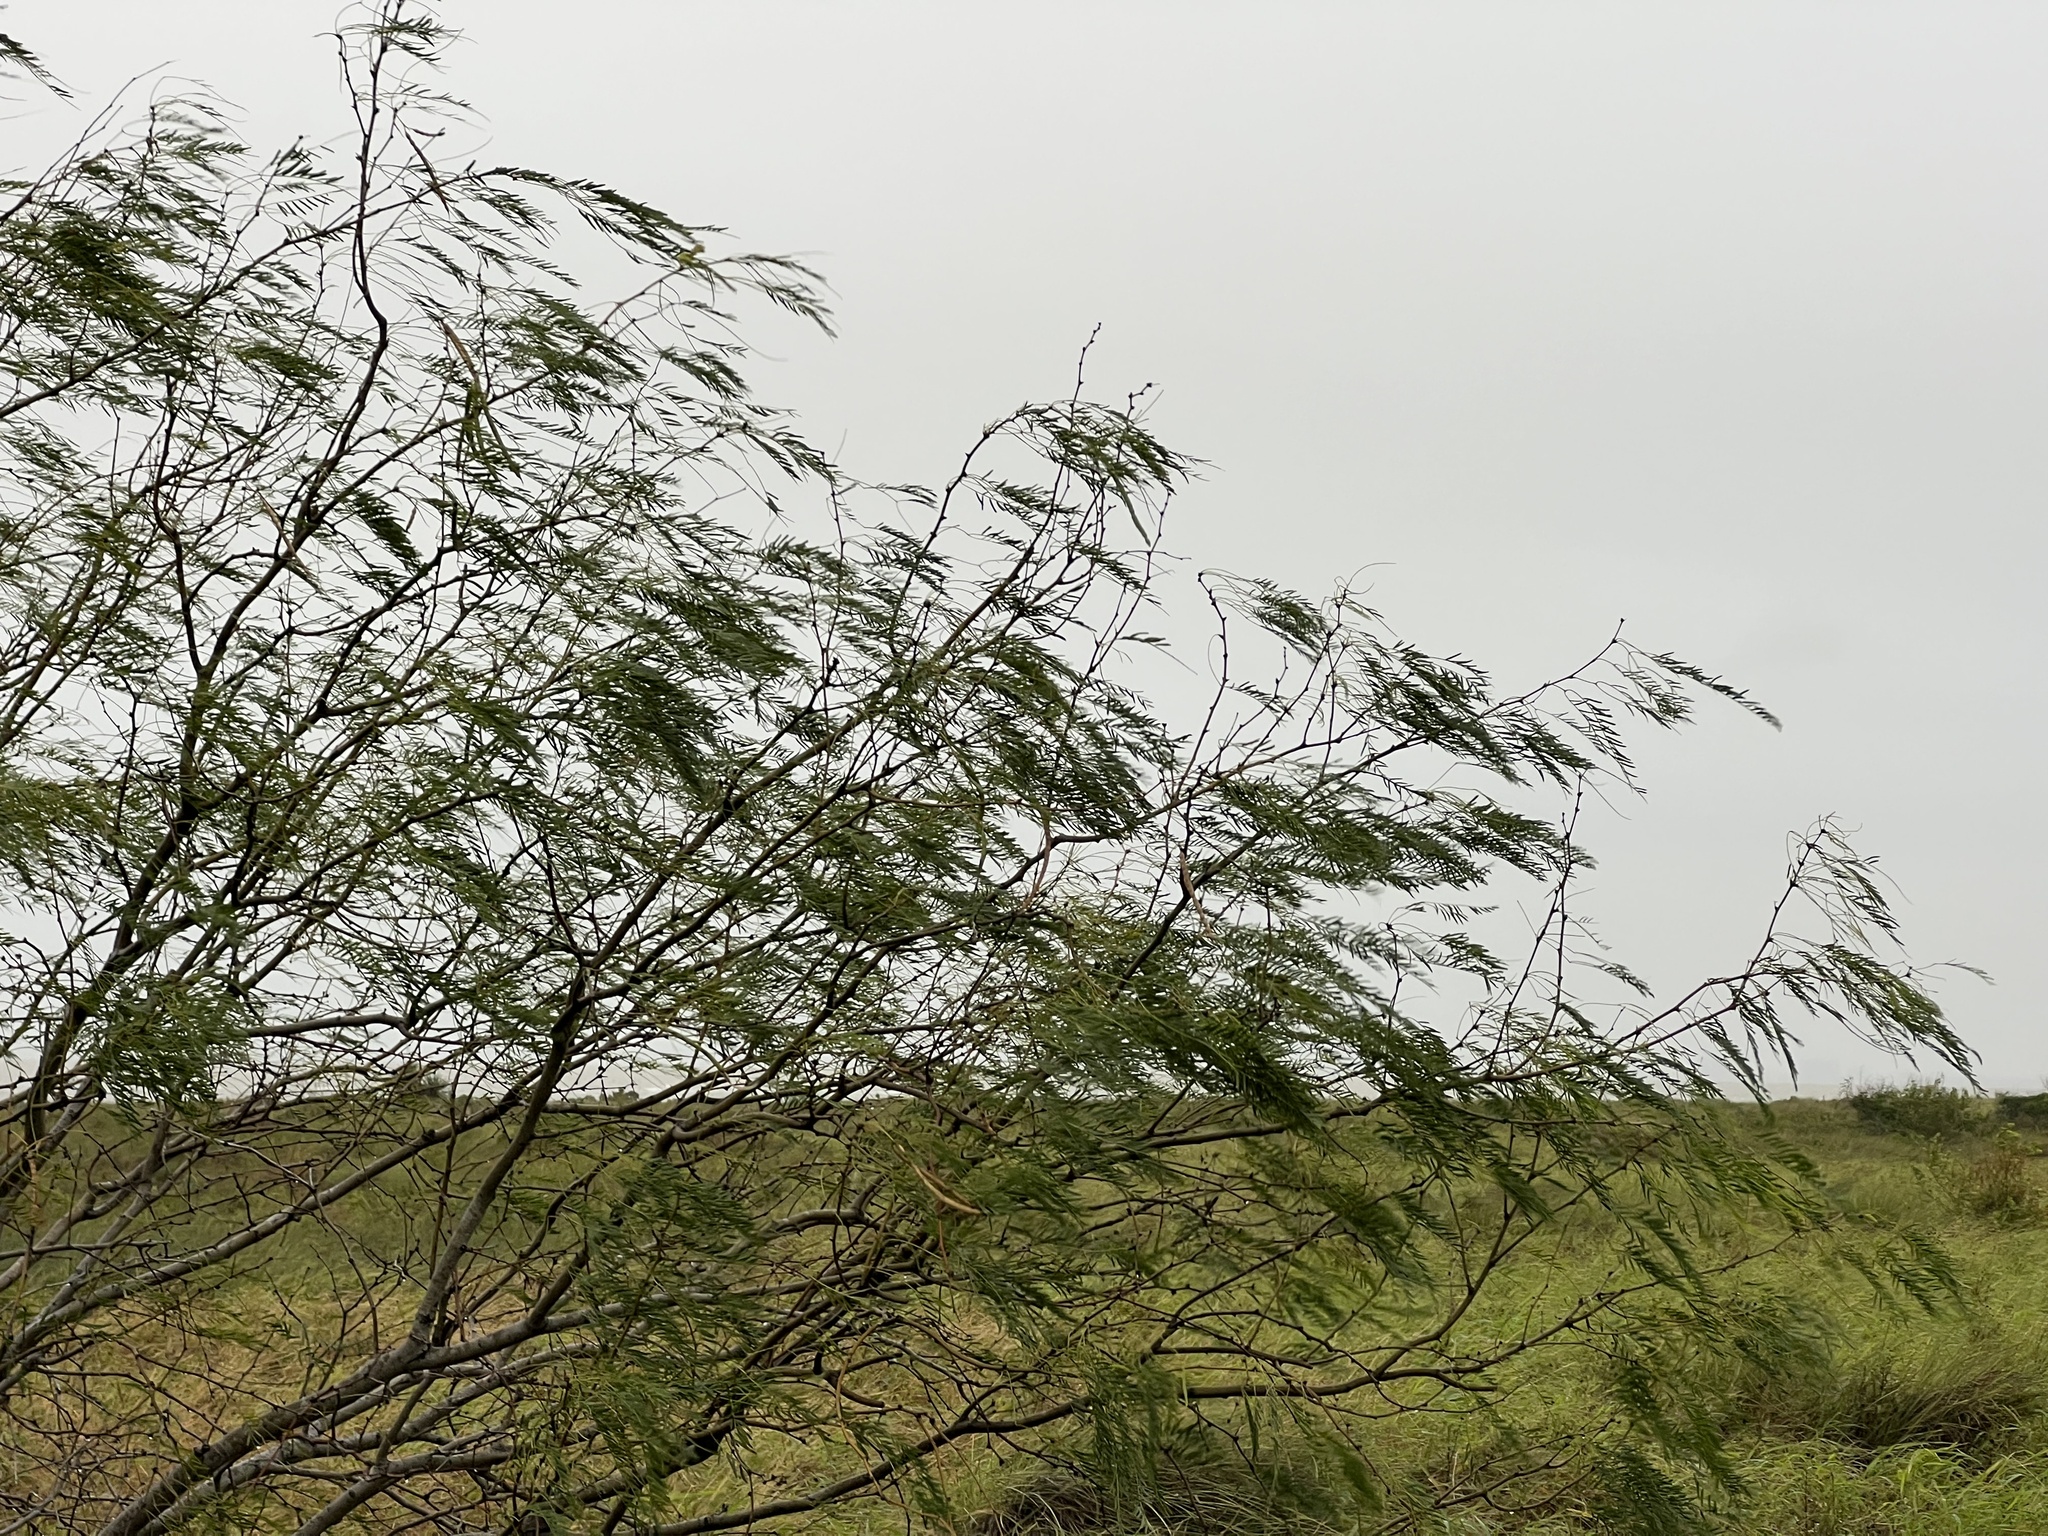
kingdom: Plantae
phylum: Tracheophyta
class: Magnoliopsida
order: Fabales
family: Fabaceae
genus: Prosopis
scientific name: Prosopis glandulosa
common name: Honey mesquite
